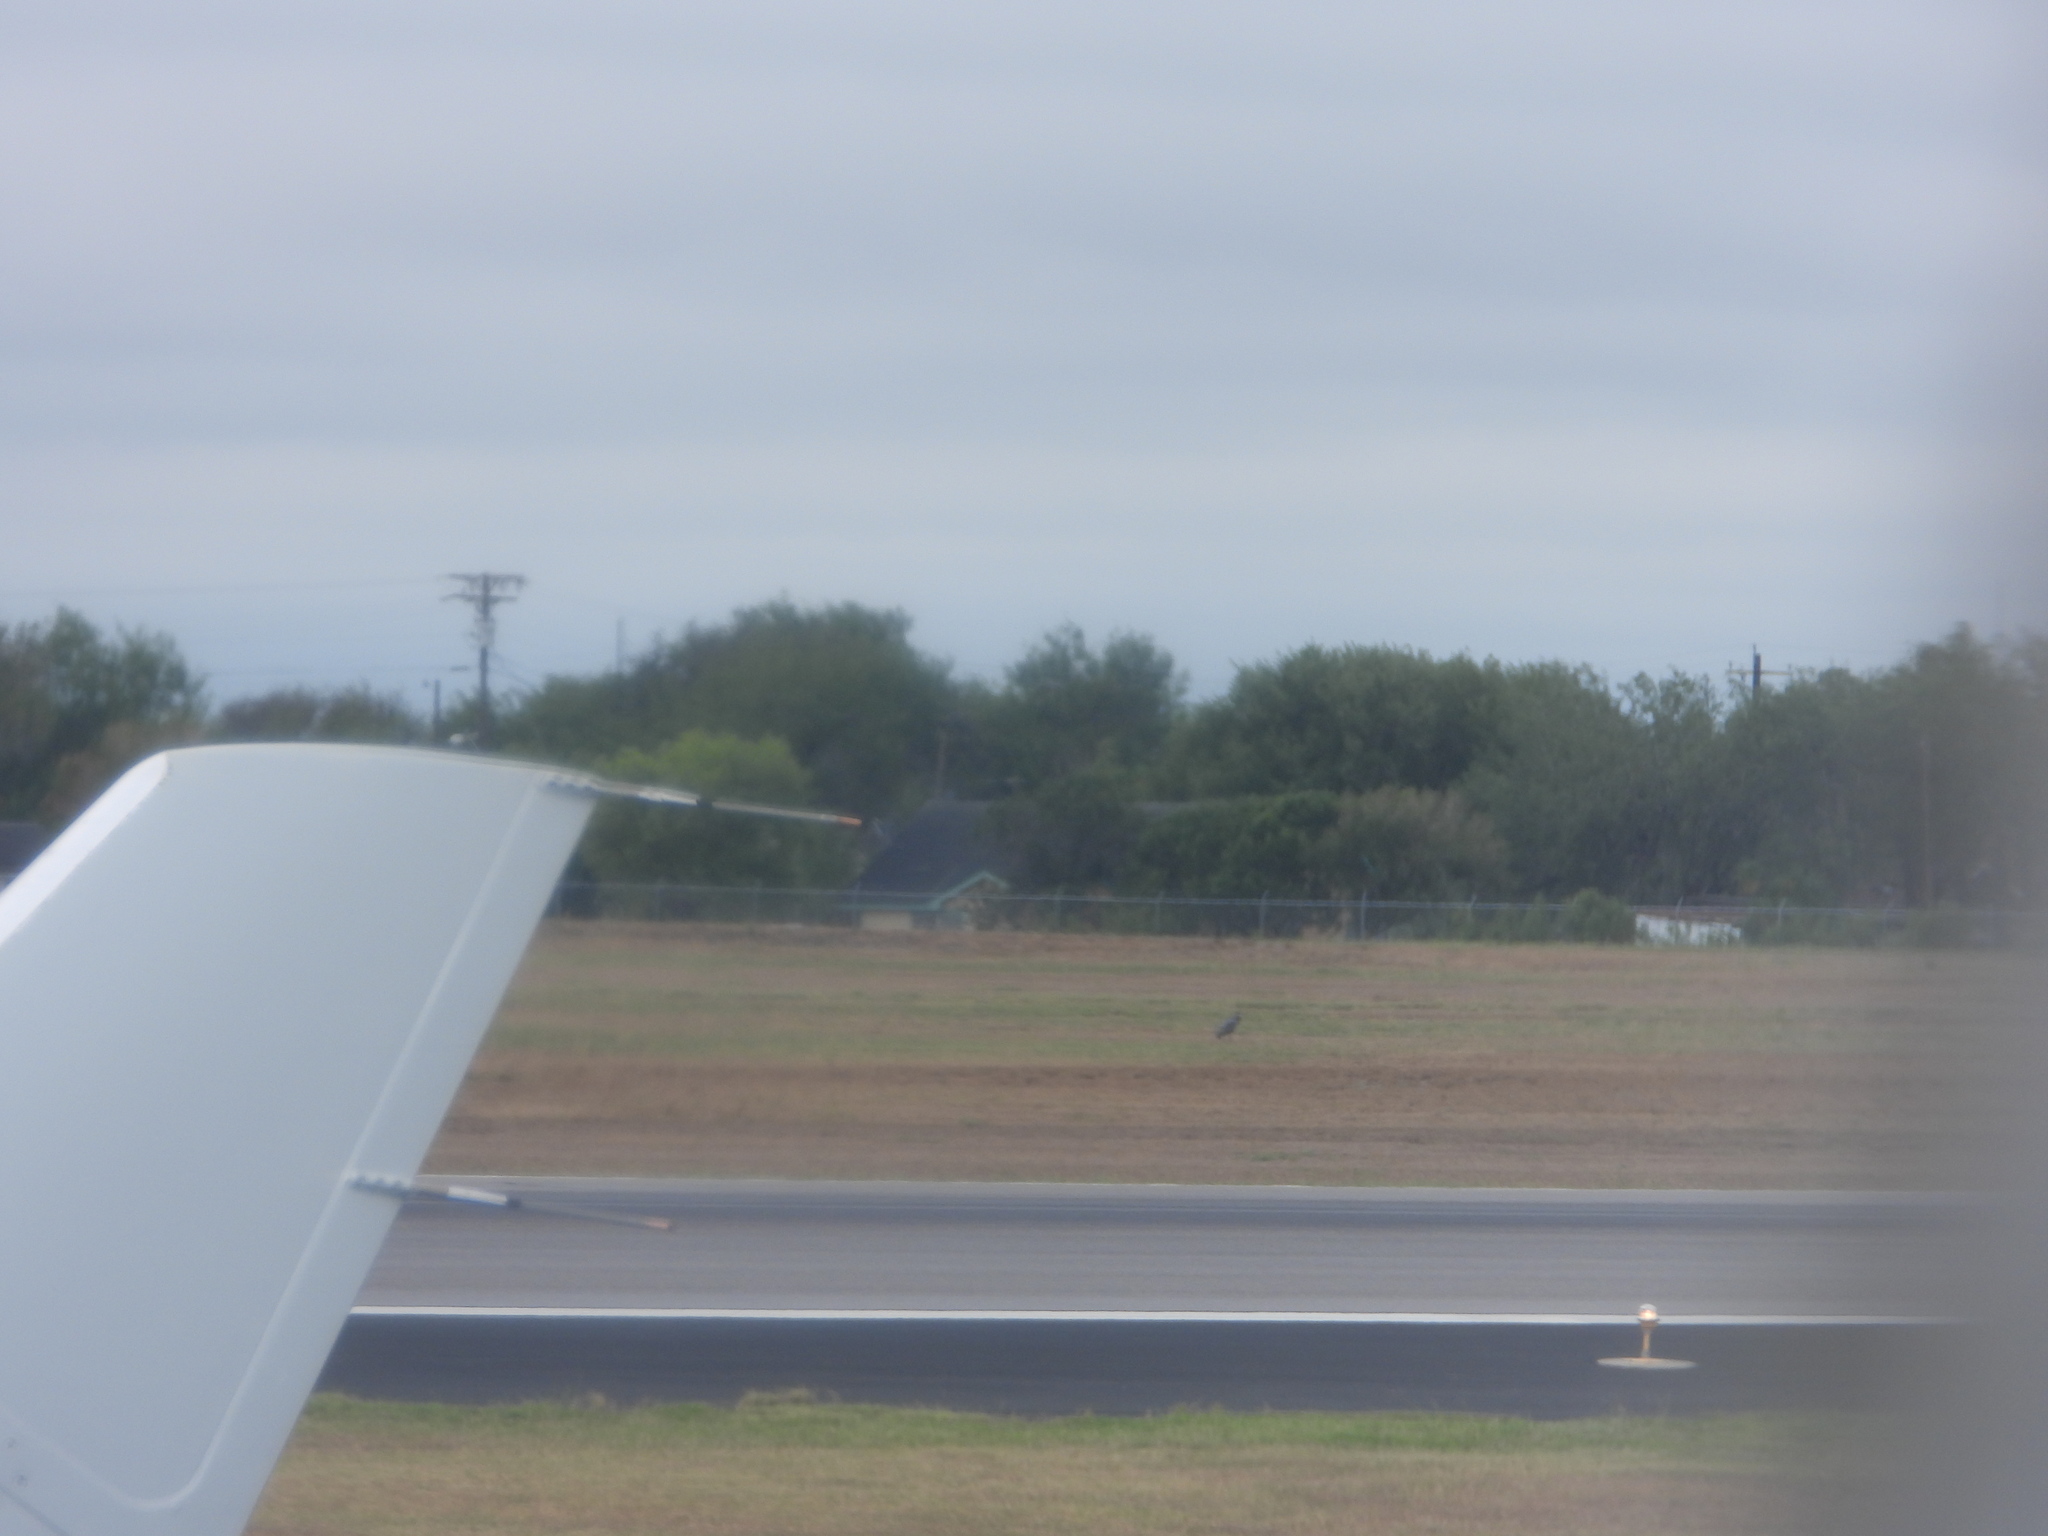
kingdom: Animalia
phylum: Chordata
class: Aves
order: Pelecaniformes
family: Ardeidae
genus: Ardea
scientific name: Ardea herodias
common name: Great blue heron
